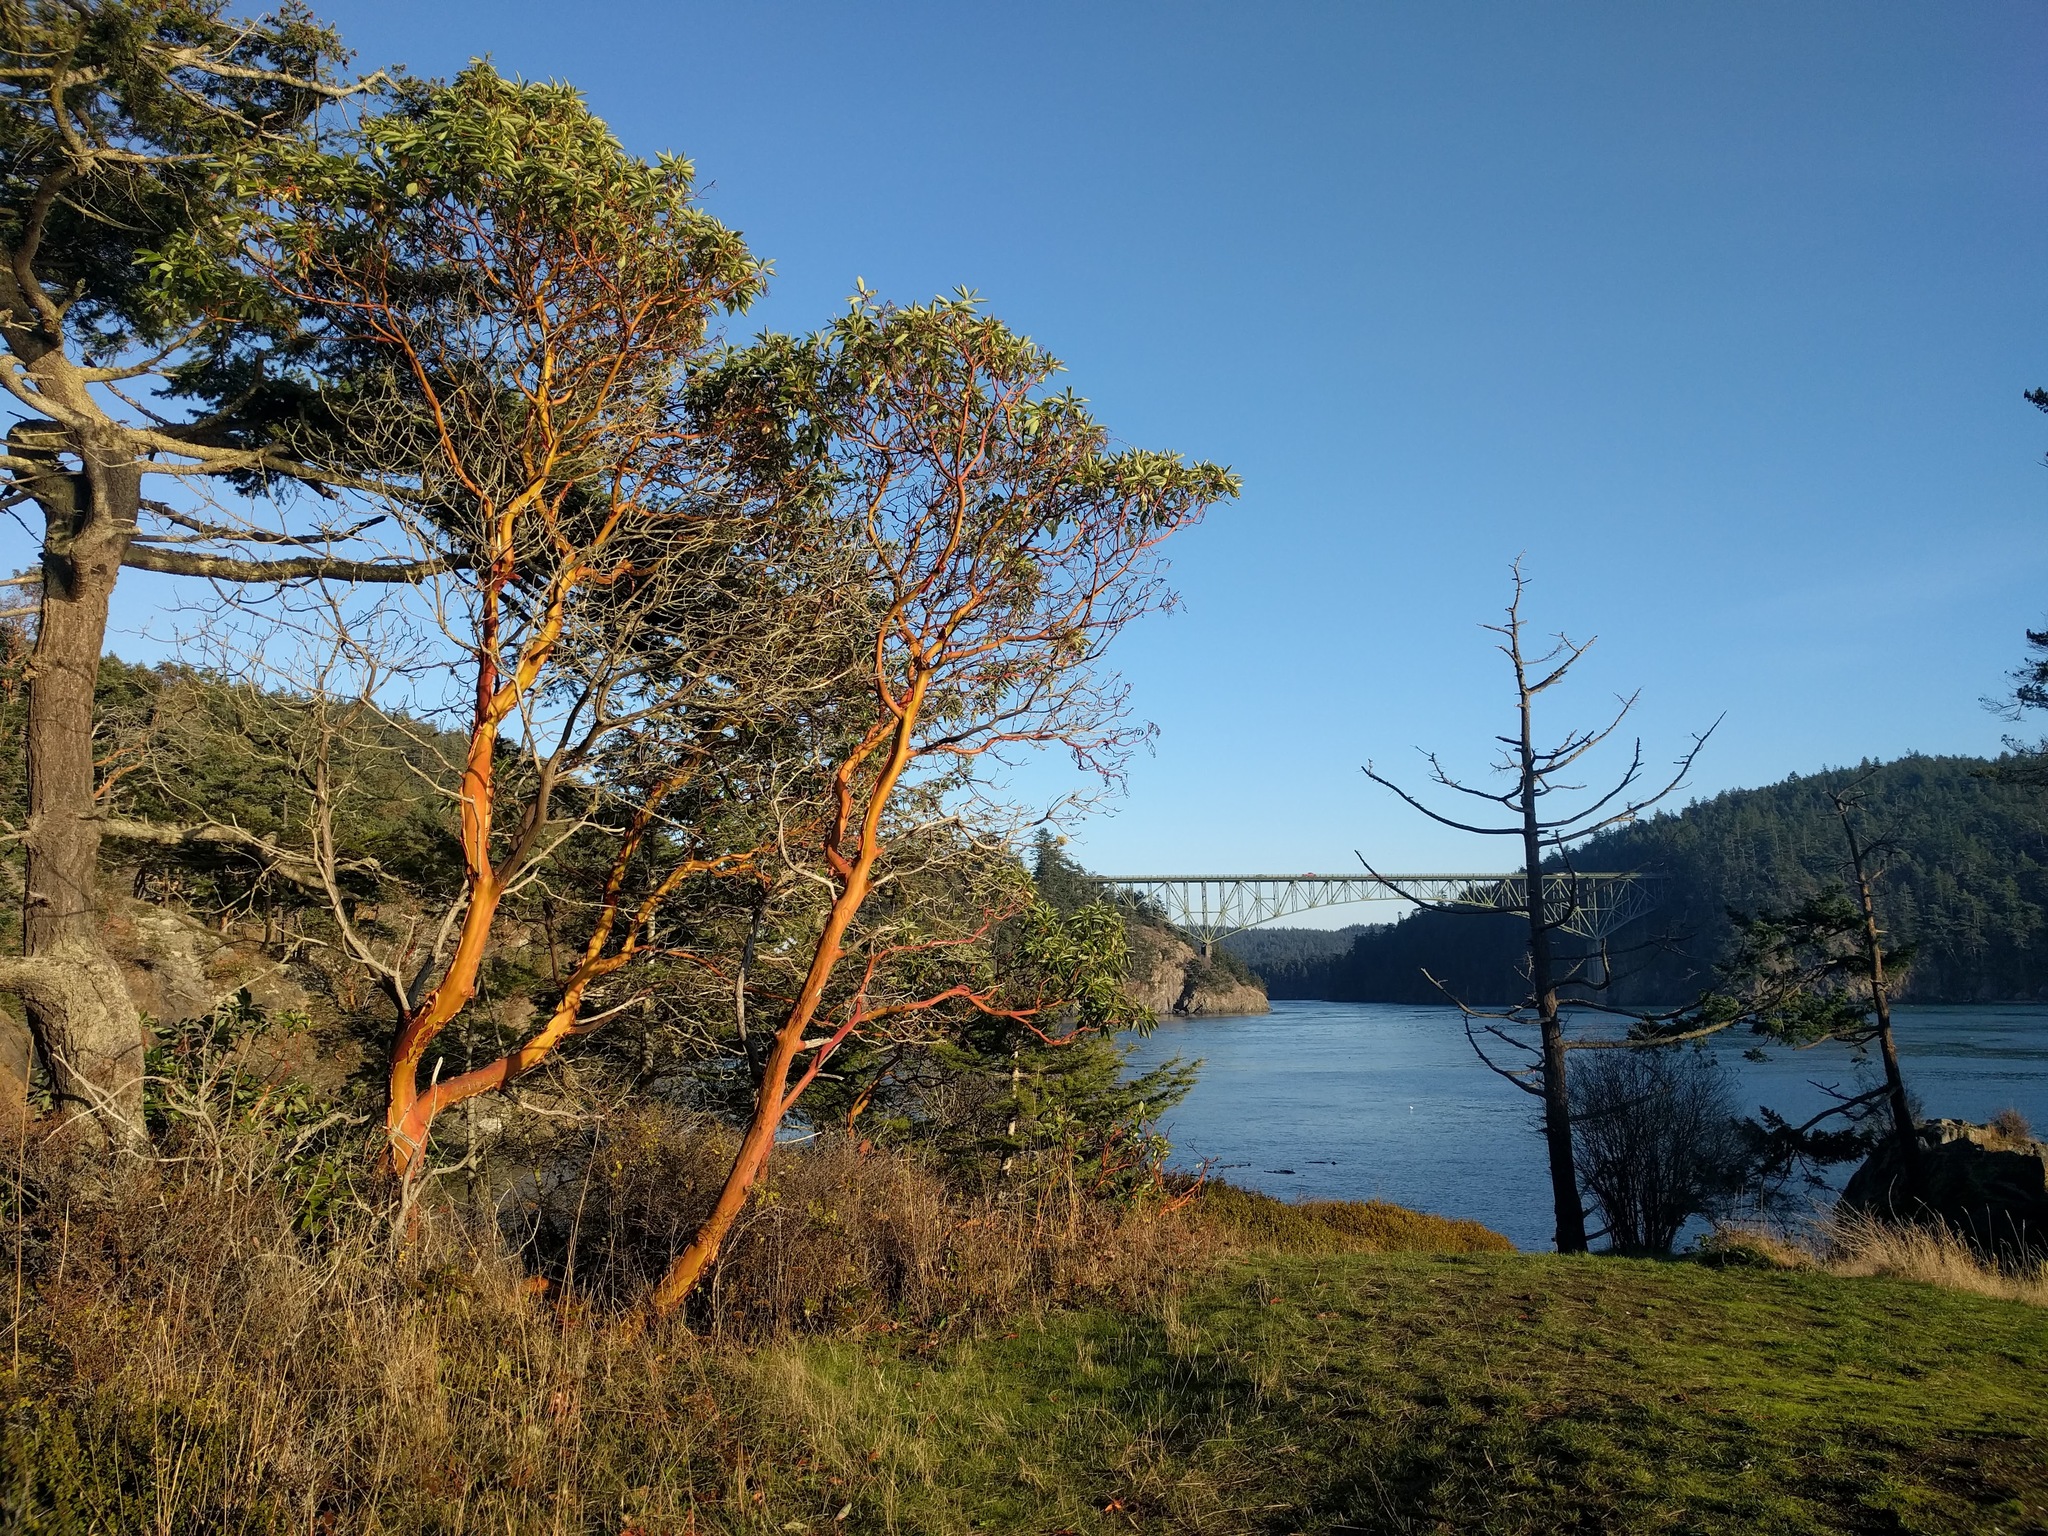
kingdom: Plantae
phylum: Tracheophyta
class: Magnoliopsida
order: Ericales
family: Ericaceae
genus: Arbutus
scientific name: Arbutus menziesii
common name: Pacific madrone
